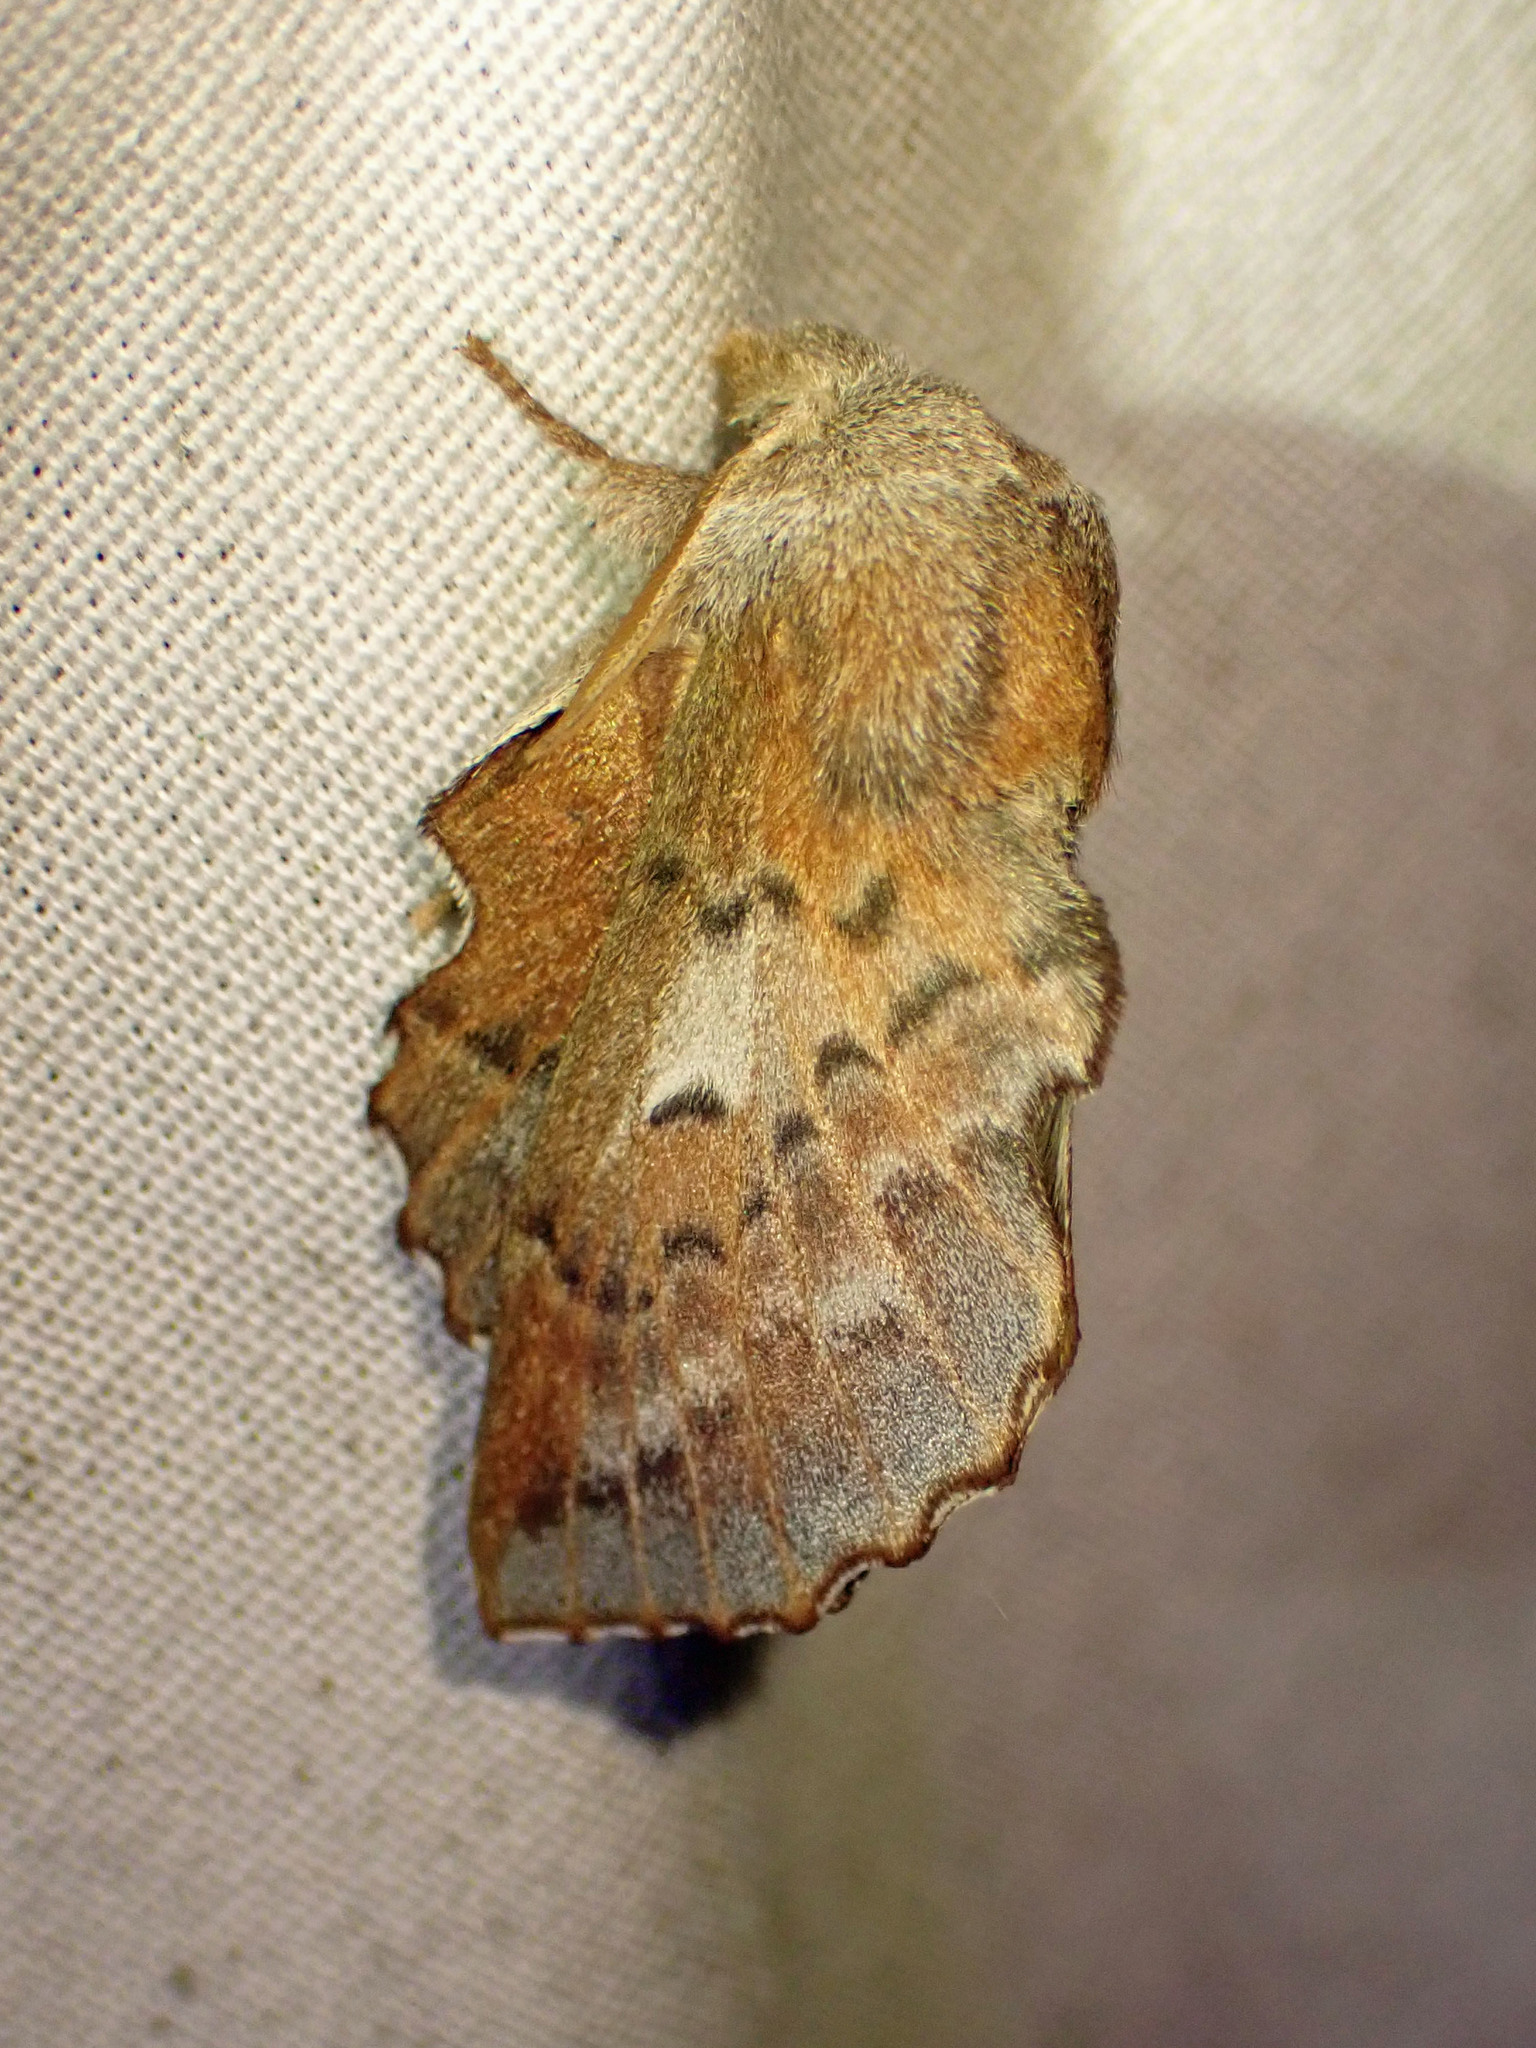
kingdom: Animalia
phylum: Arthropoda
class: Insecta
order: Lepidoptera
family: Lasiocampidae
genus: Phyllodesma
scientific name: Phyllodesma americana
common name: American lappet moth
